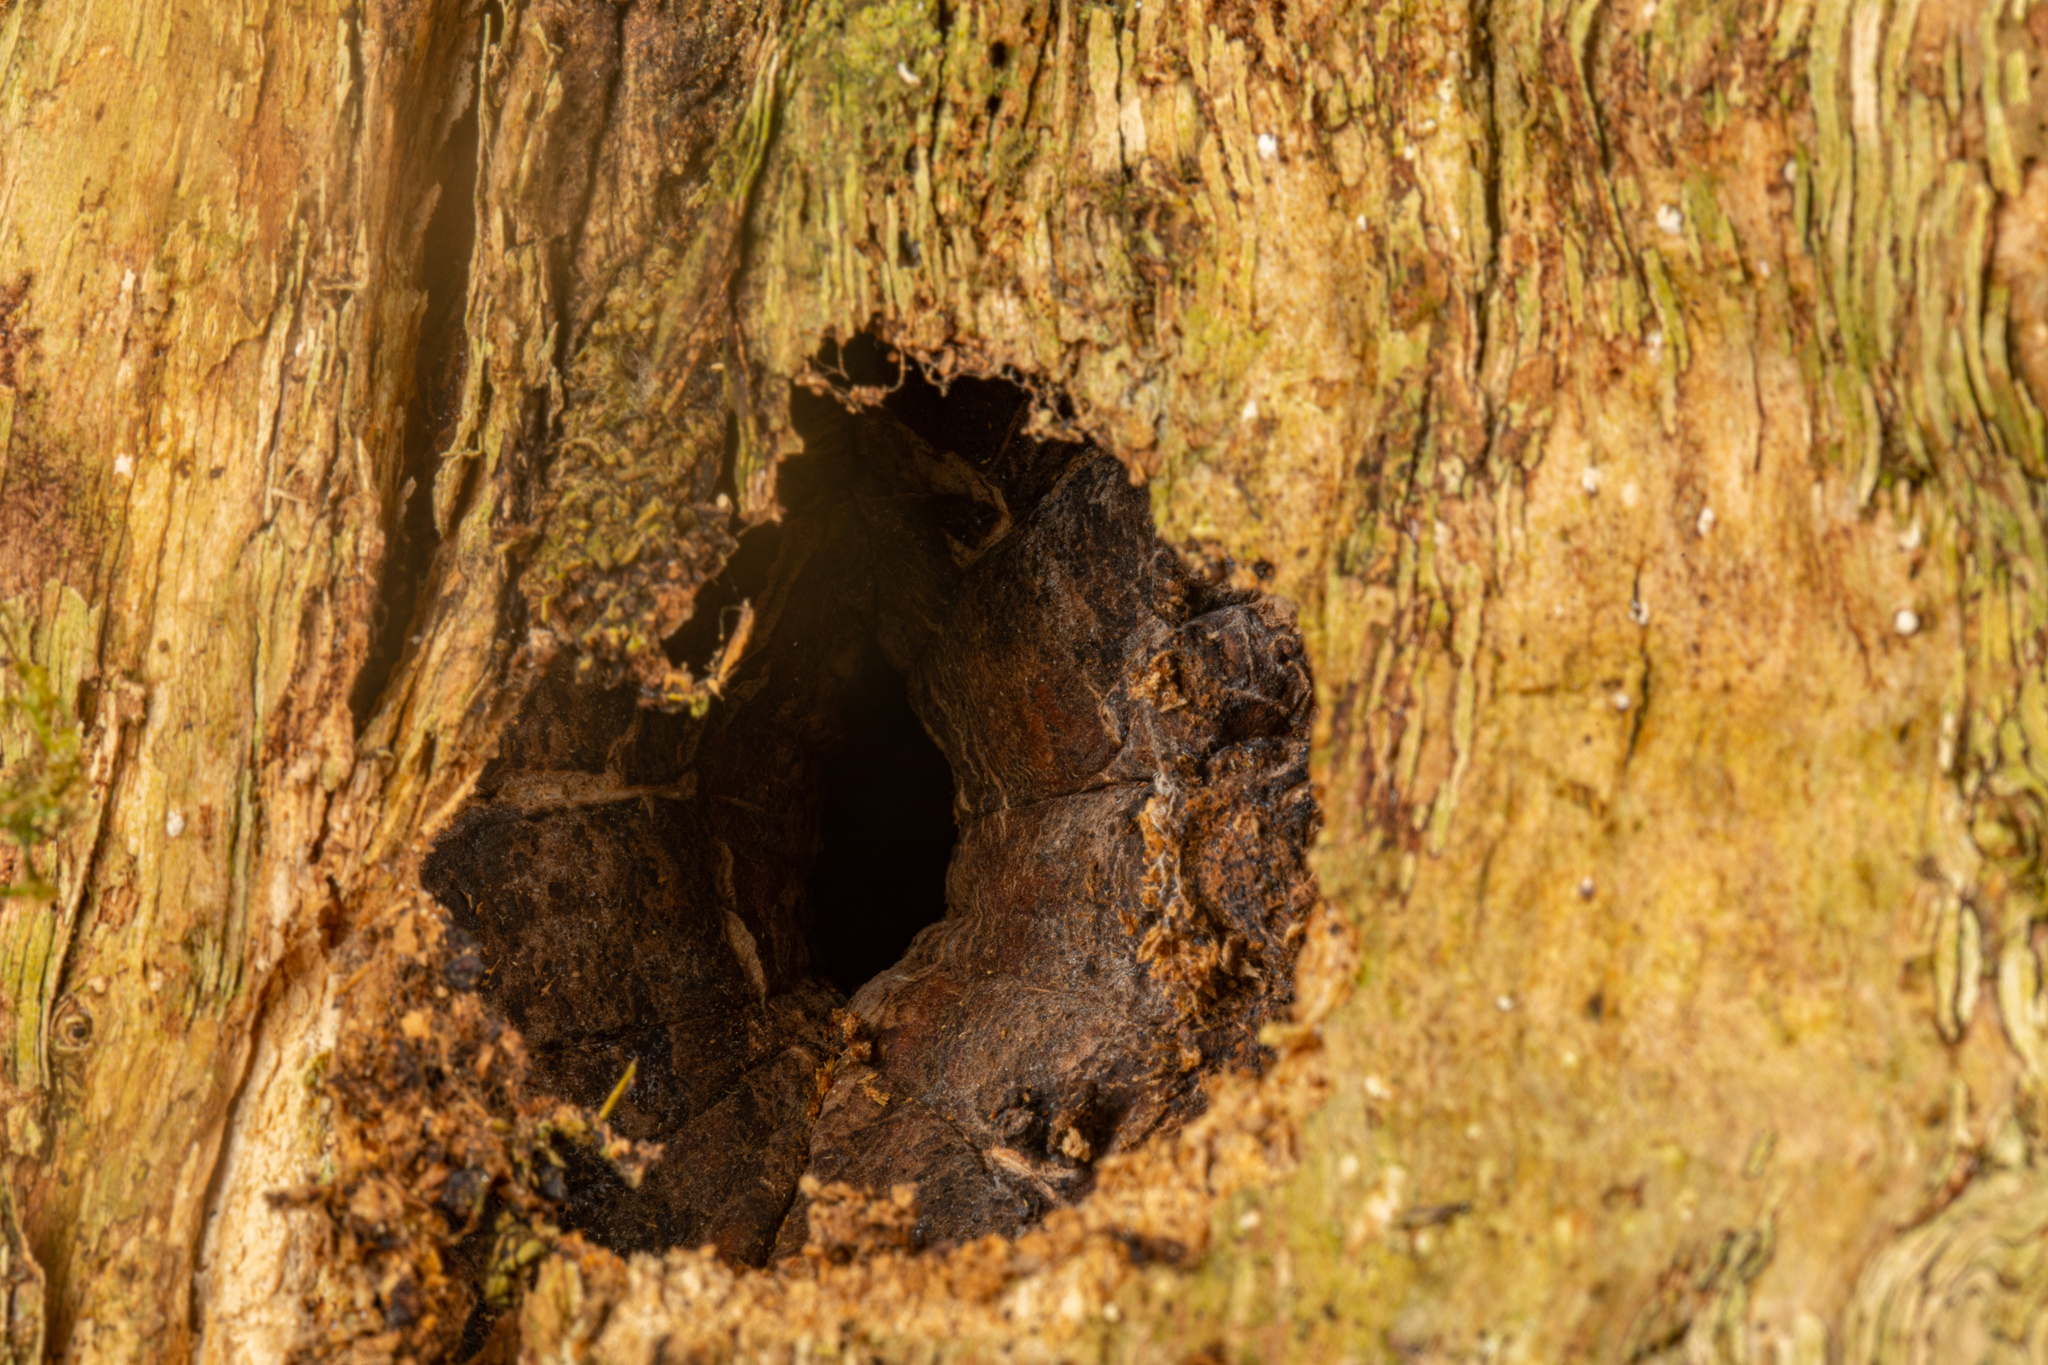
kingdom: Animalia
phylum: Arthropoda
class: Insecta
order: Lepidoptera
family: Hepialidae
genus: Aenetus
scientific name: Aenetus virescens
